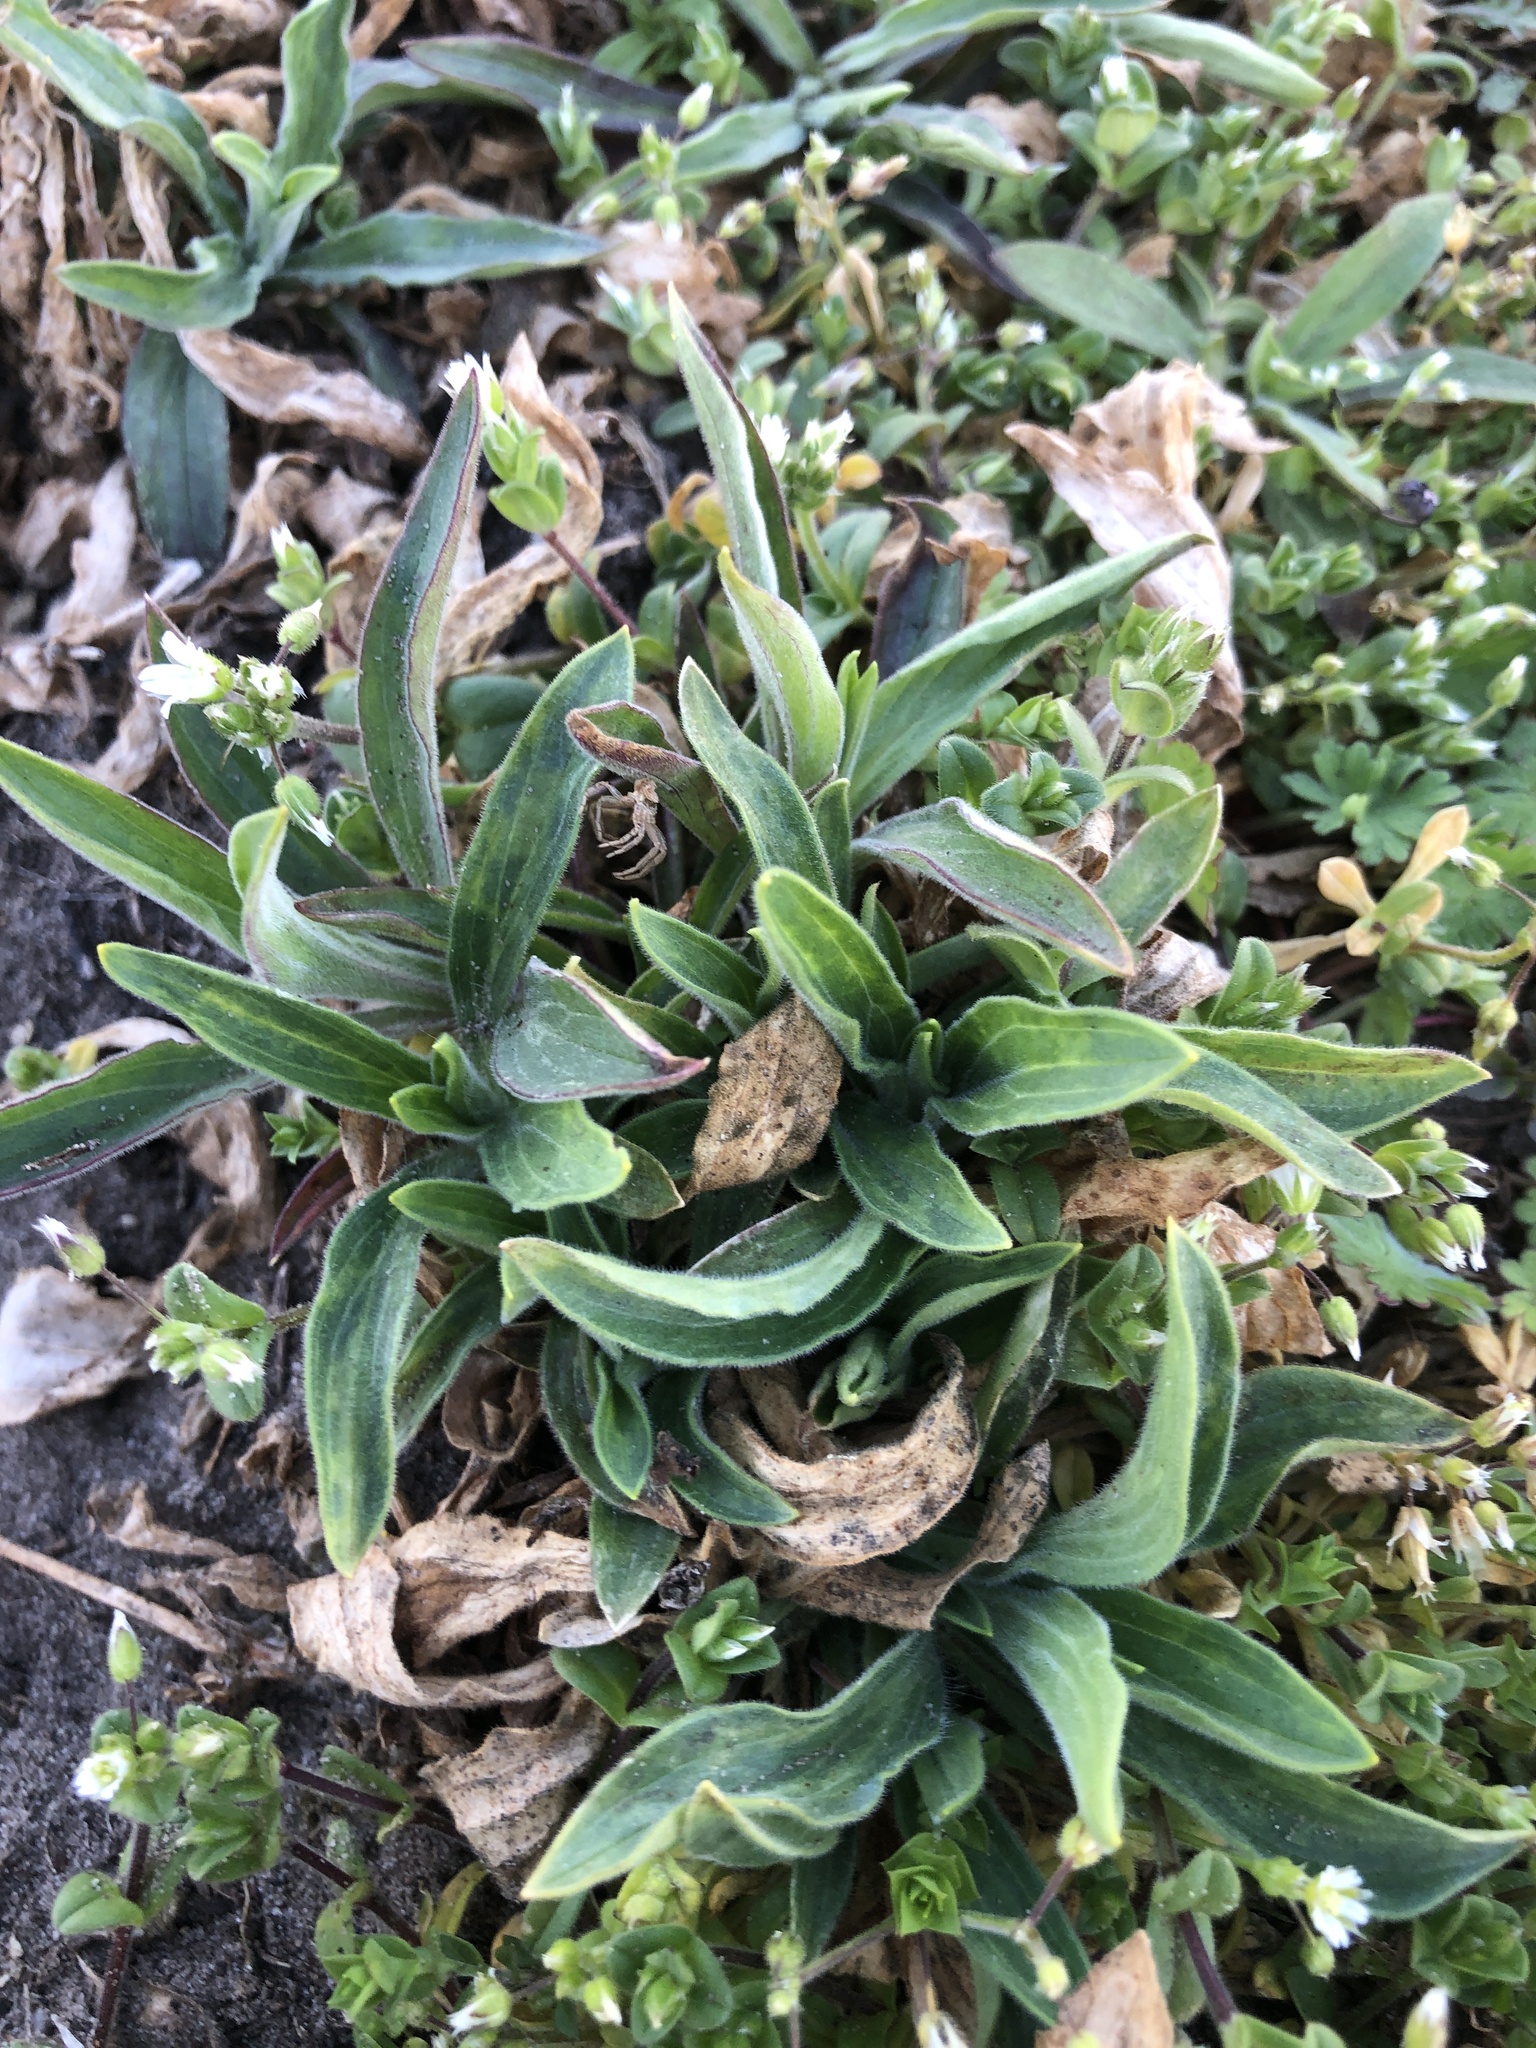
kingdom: Plantae
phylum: Tracheophyta
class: Magnoliopsida
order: Caryophyllales
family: Caryophyllaceae
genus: Silene
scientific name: Silene latifolia
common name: White campion
